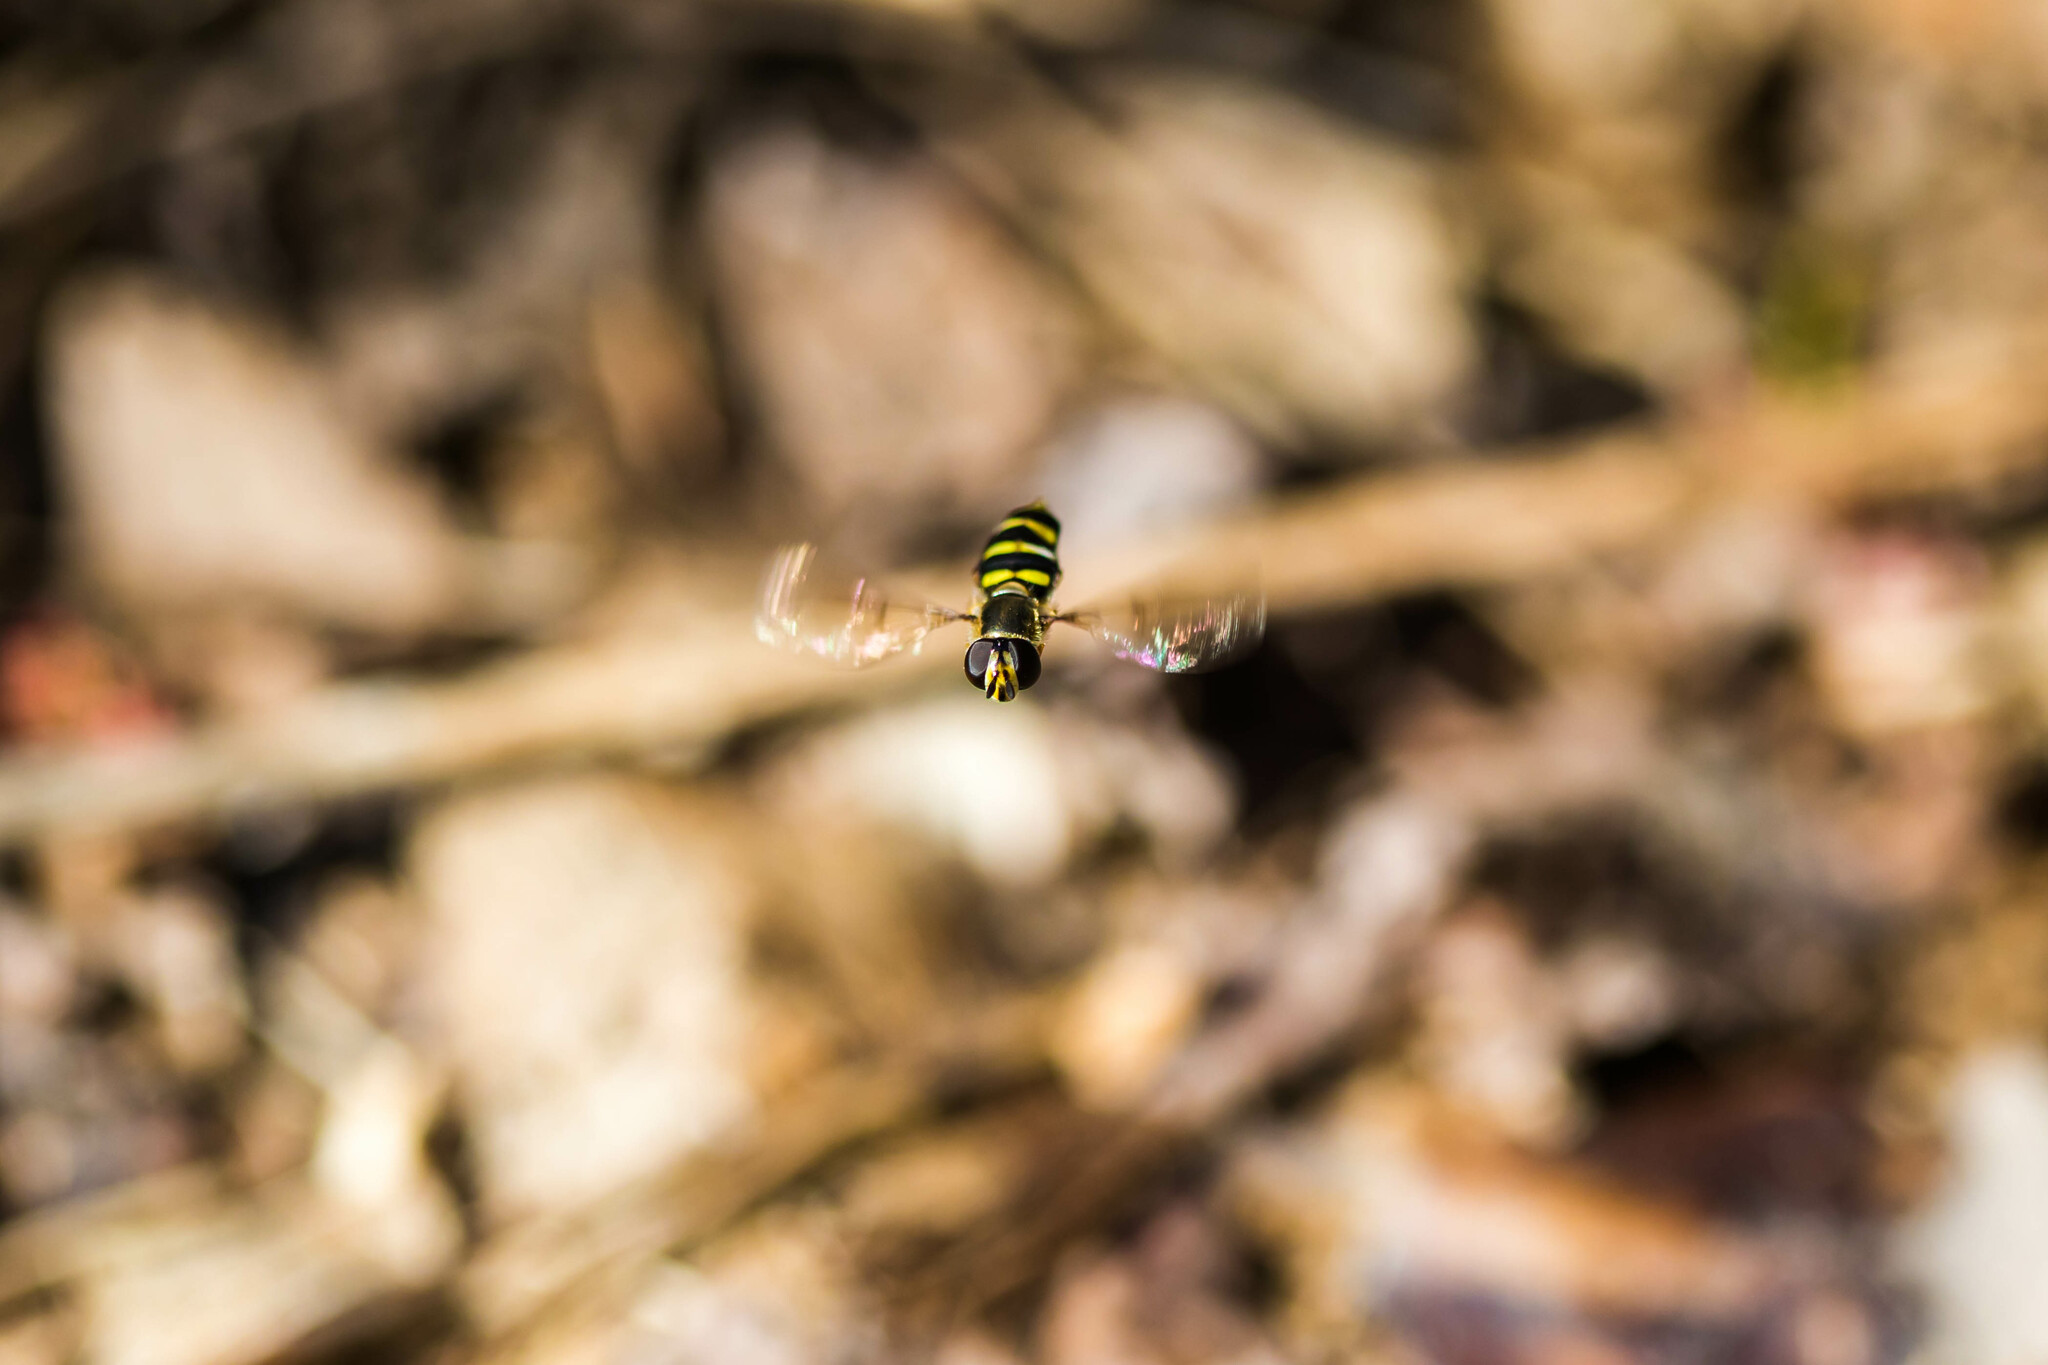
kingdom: Animalia
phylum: Arthropoda
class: Insecta
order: Diptera
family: Syrphidae
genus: Eupeodes
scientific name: Eupeodes
